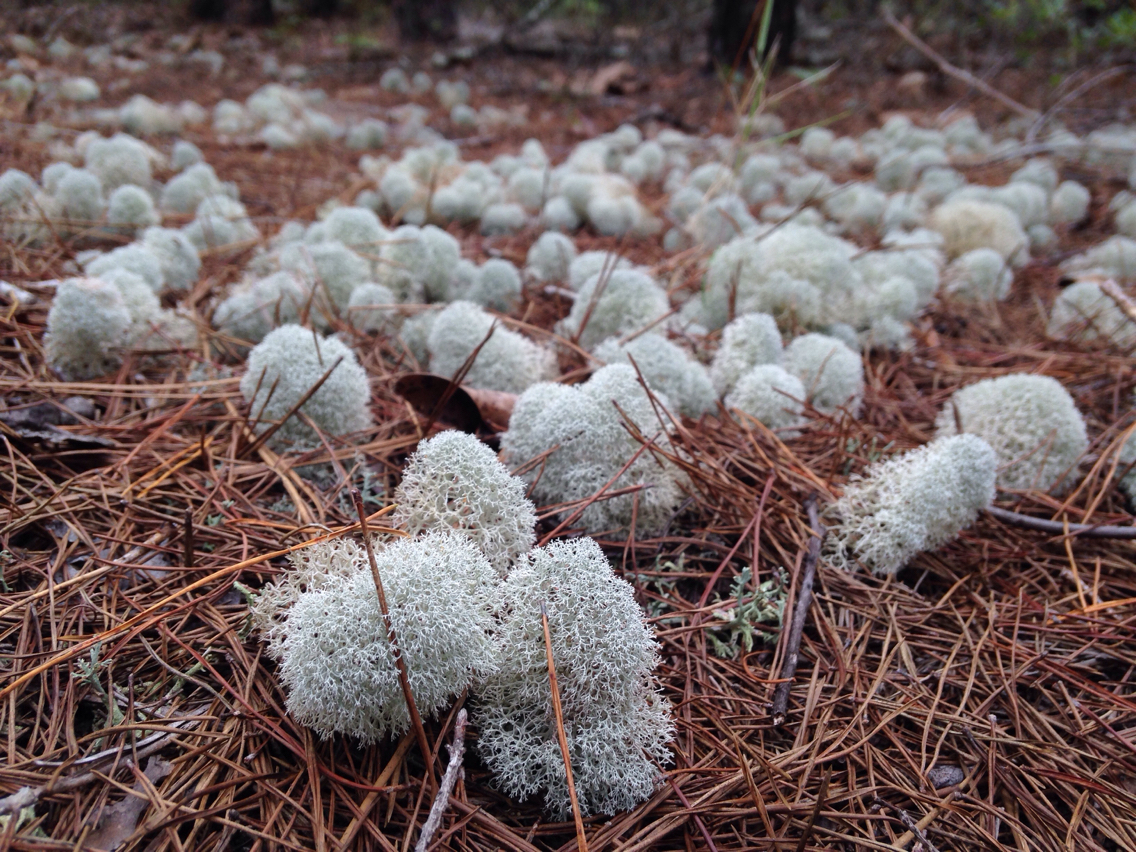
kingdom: Fungi
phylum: Ascomycota
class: Lecanoromycetes
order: Lecanorales
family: Cladoniaceae
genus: Cladonia
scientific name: Cladonia evansii
